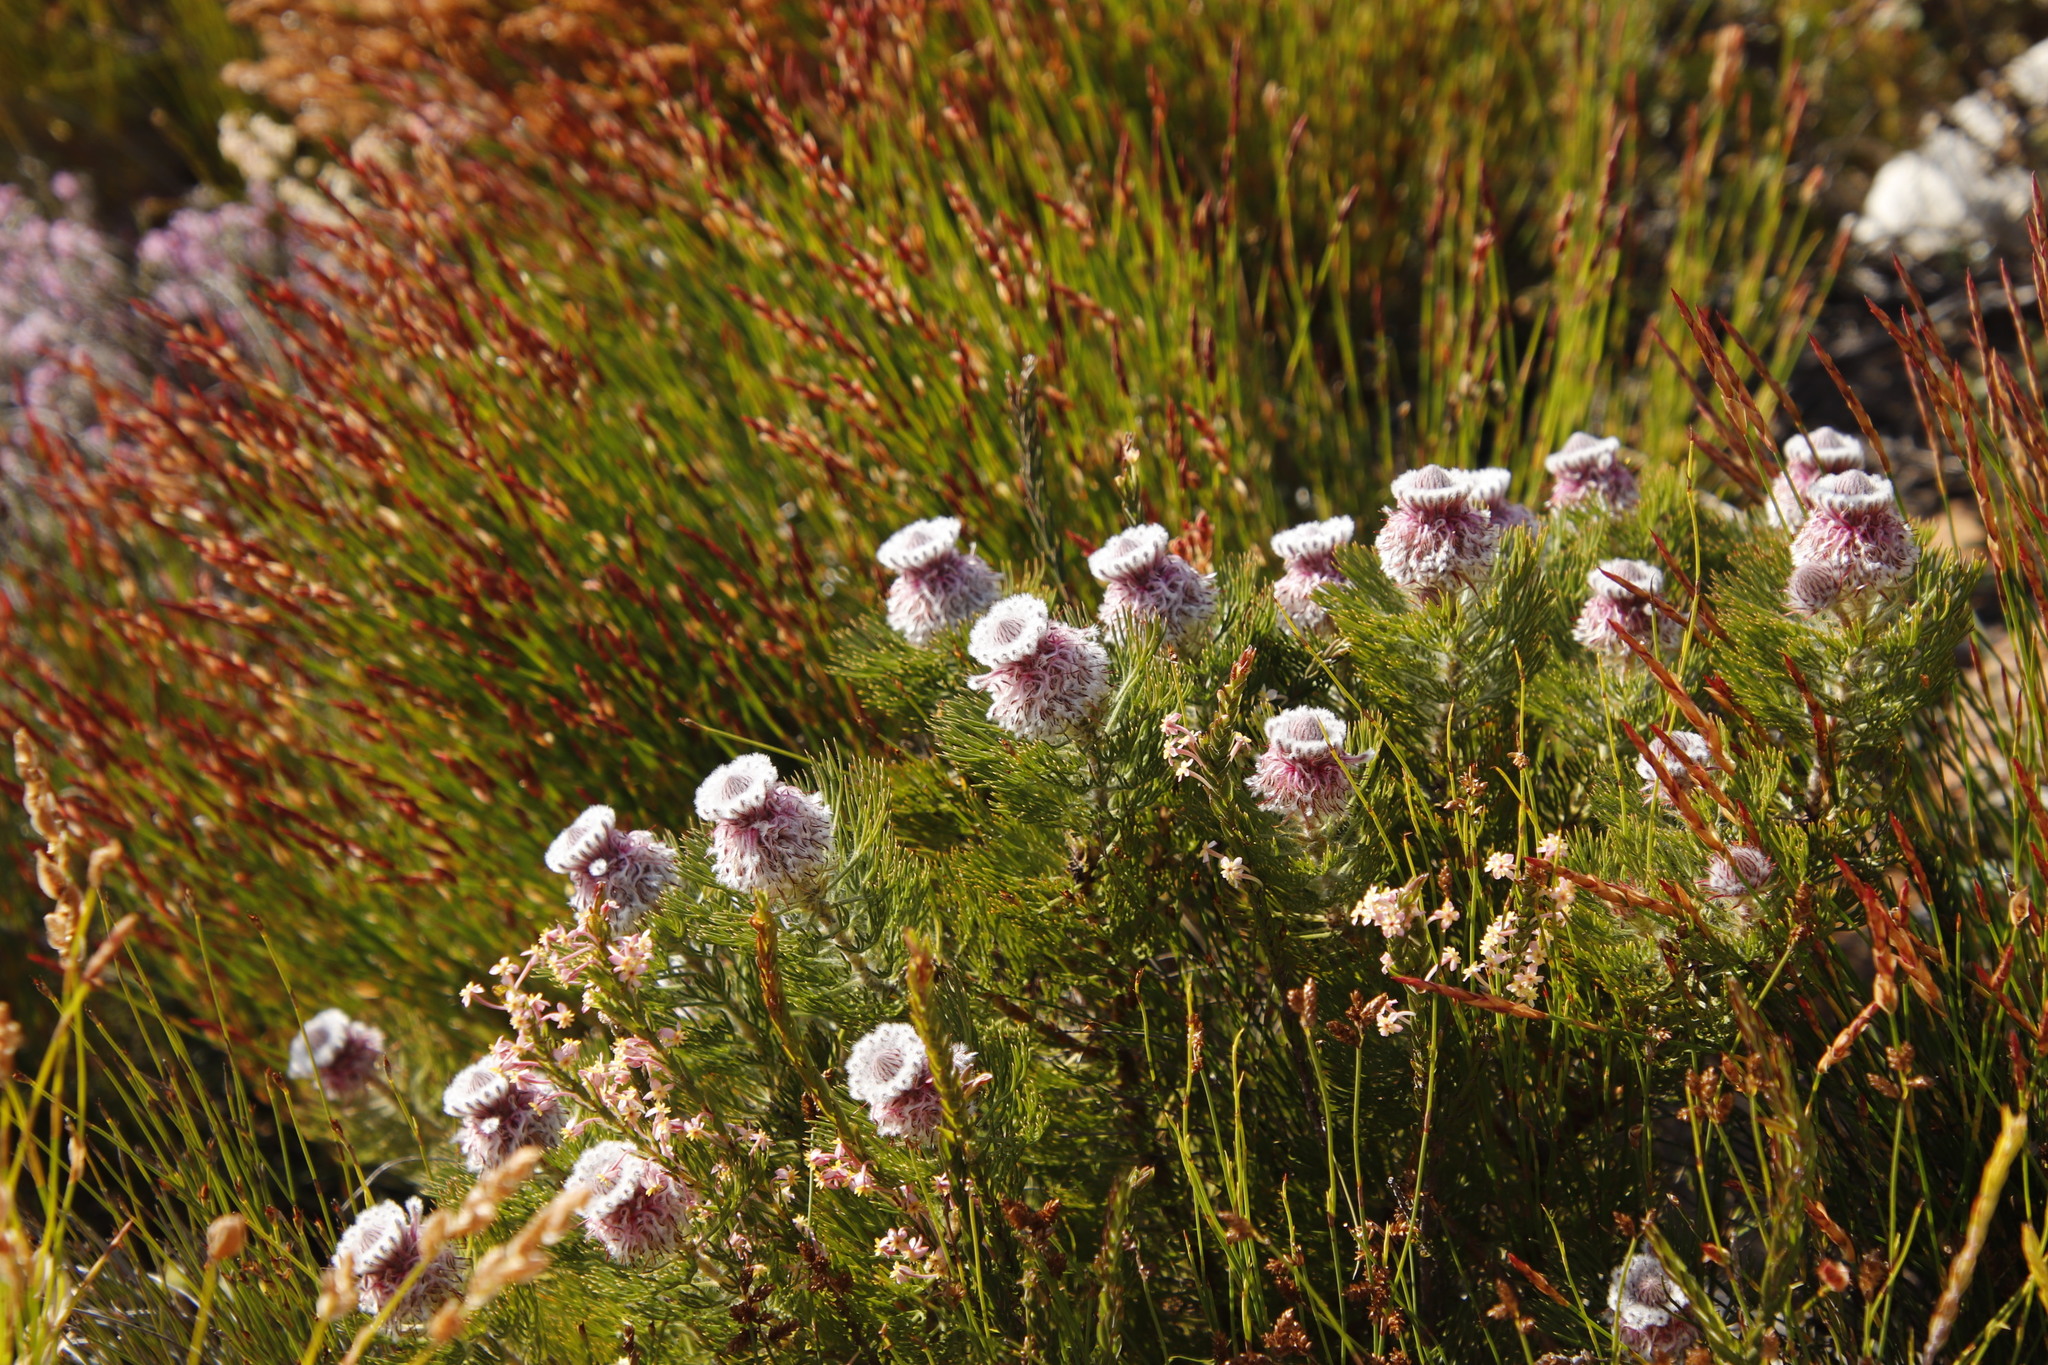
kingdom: Plantae
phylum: Tracheophyta
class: Magnoliopsida
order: Proteales
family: Proteaceae
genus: Serruria
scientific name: Serruria hirsuta
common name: Swartkops spiderhead
